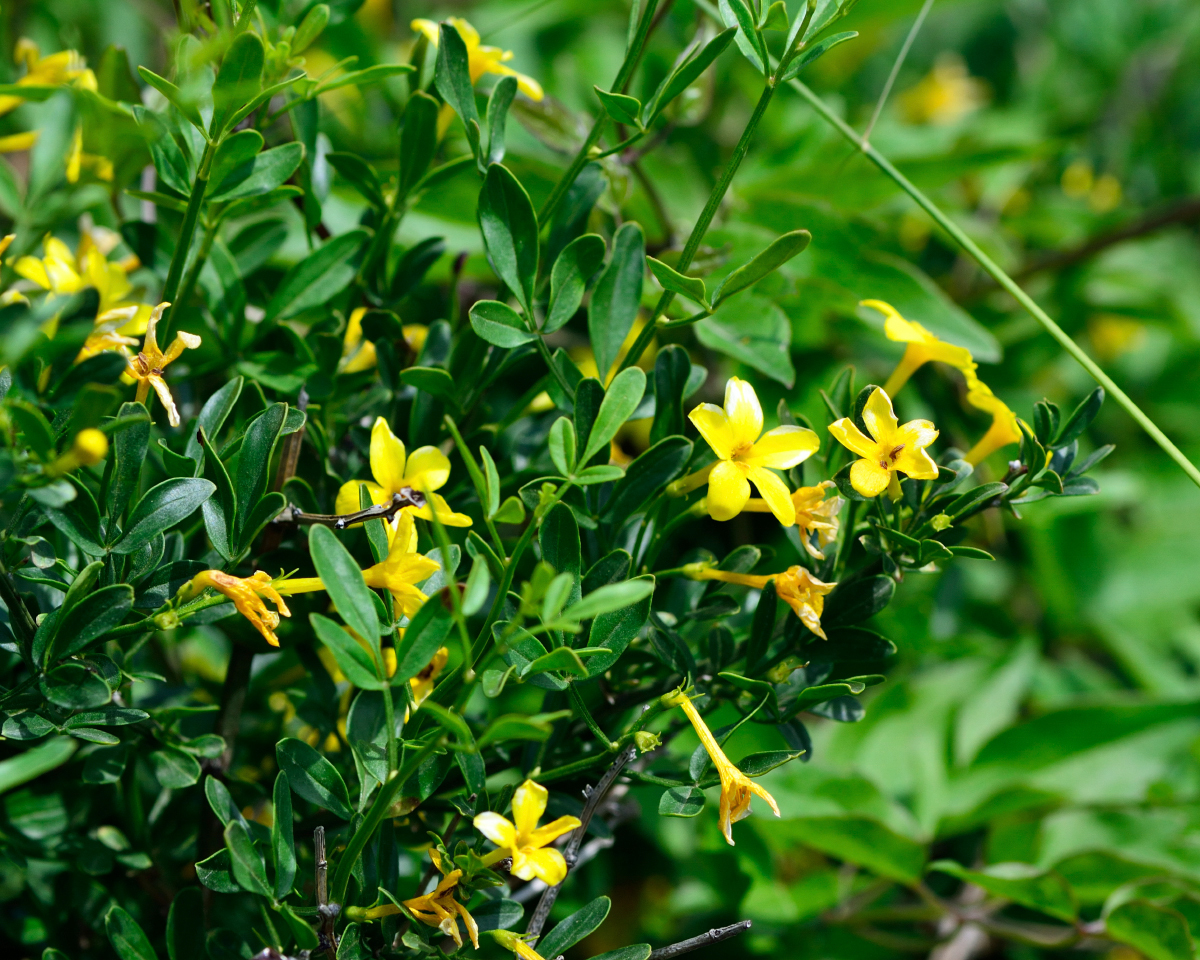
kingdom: Plantae
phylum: Tracheophyta
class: Magnoliopsida
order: Lamiales
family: Oleaceae
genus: Chrysojasminum
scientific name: Chrysojasminum fruticans
